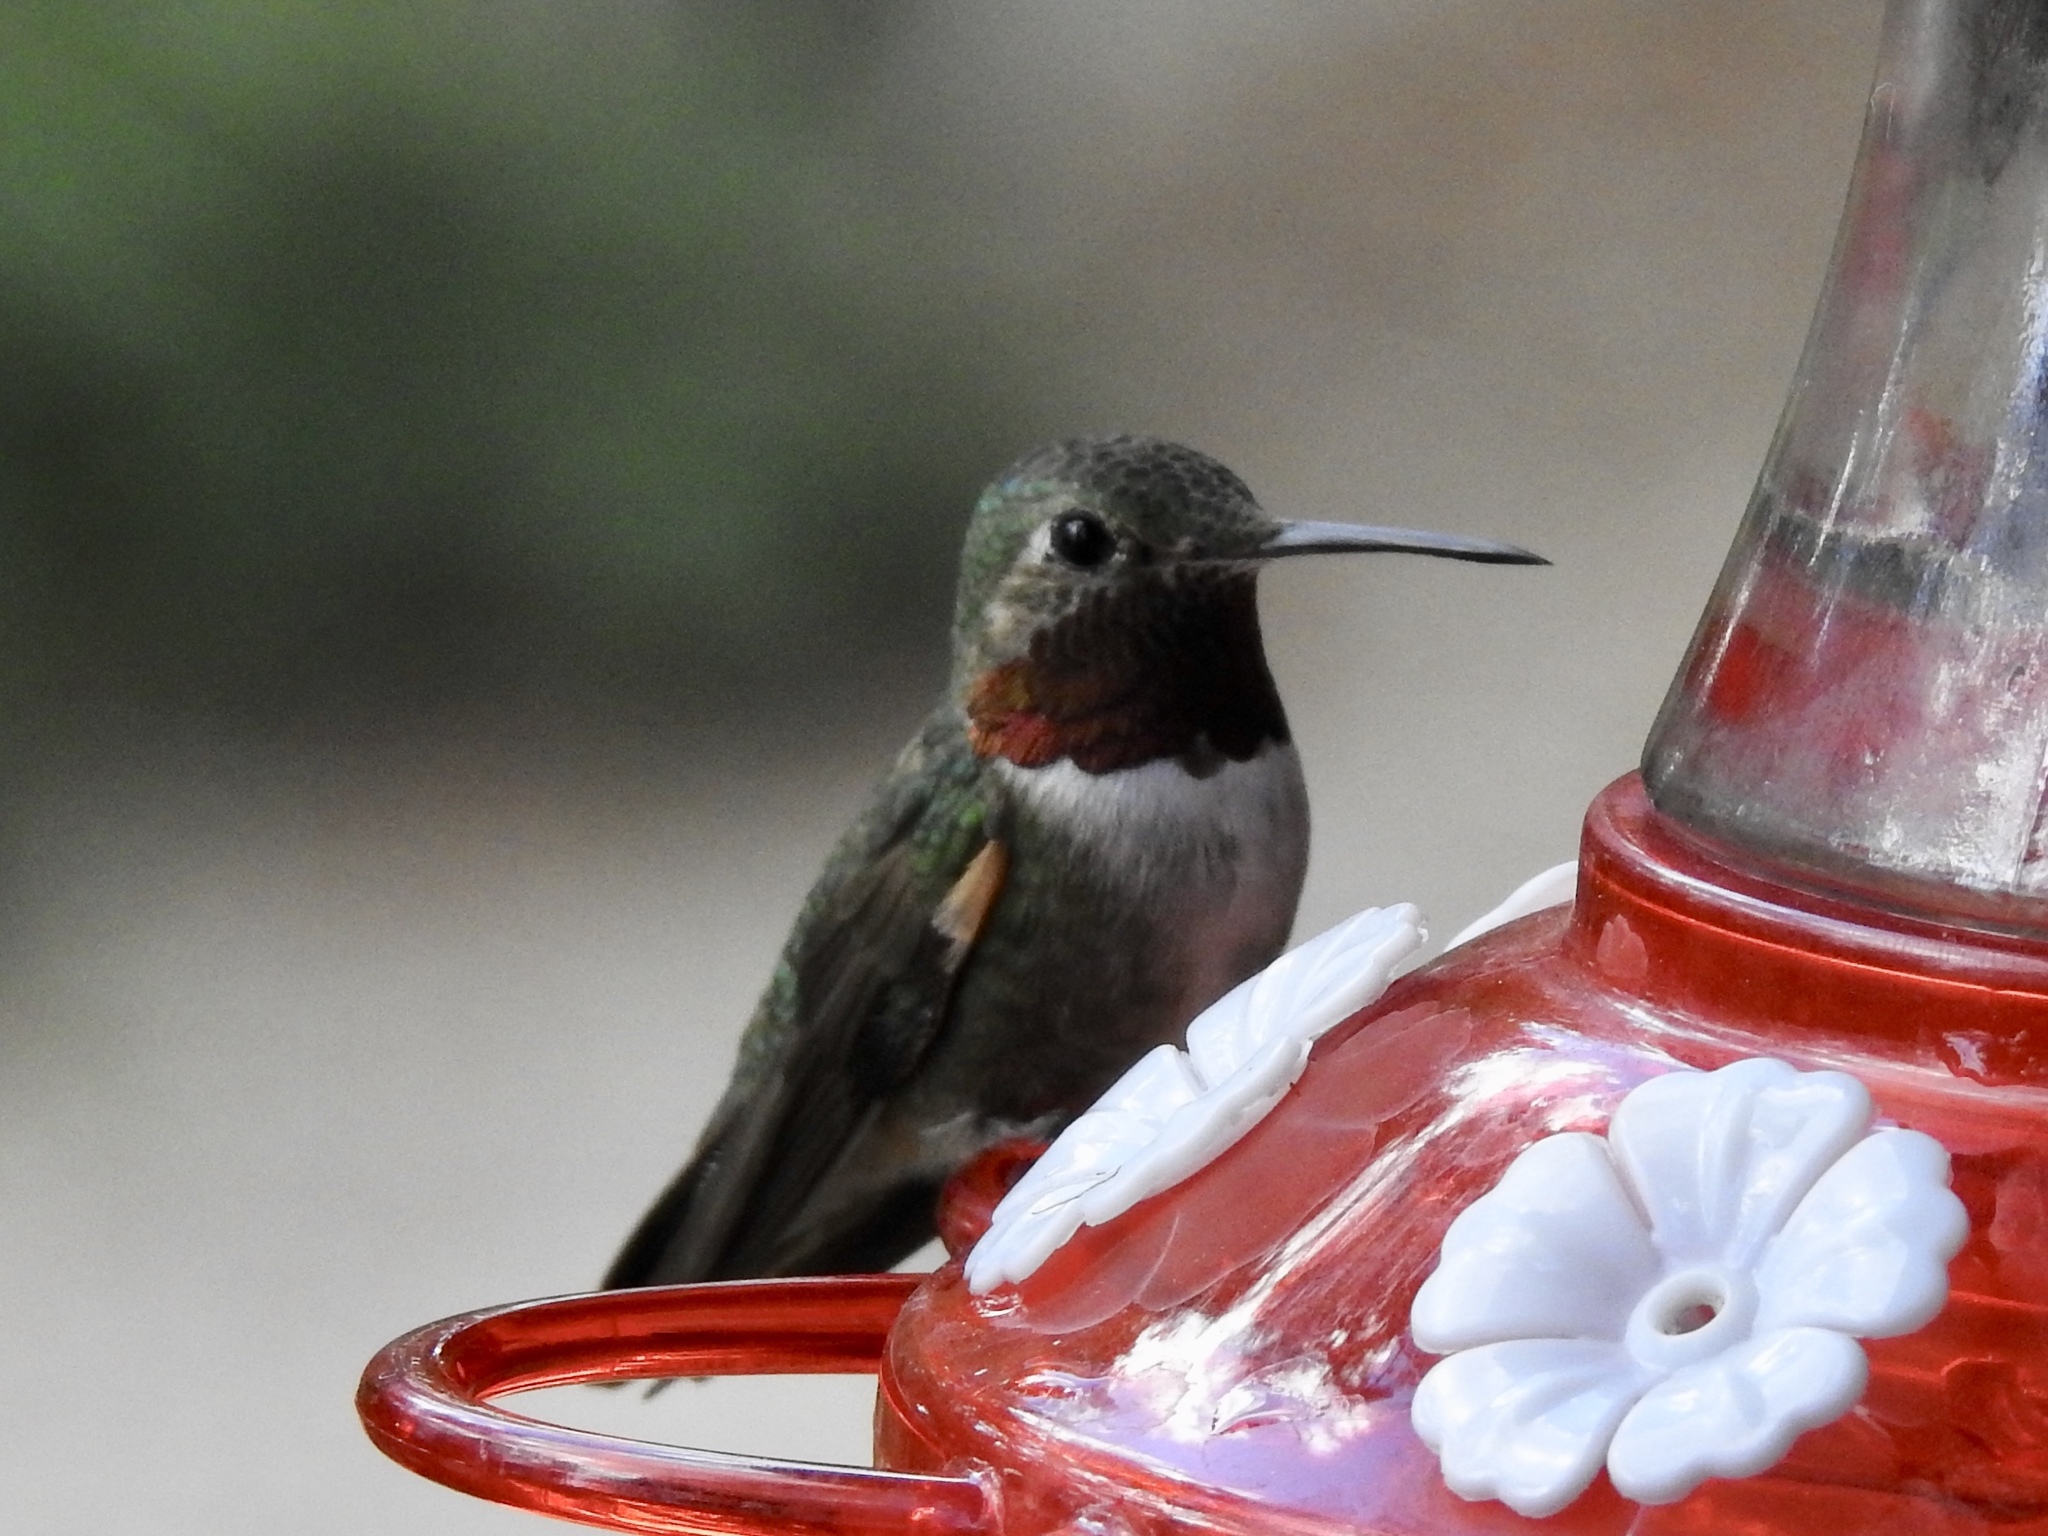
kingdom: Animalia
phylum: Chordata
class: Aves
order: Apodiformes
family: Trochilidae
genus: Selasphorus
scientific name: Selasphorus platycercus
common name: Broad-tailed hummingbird
